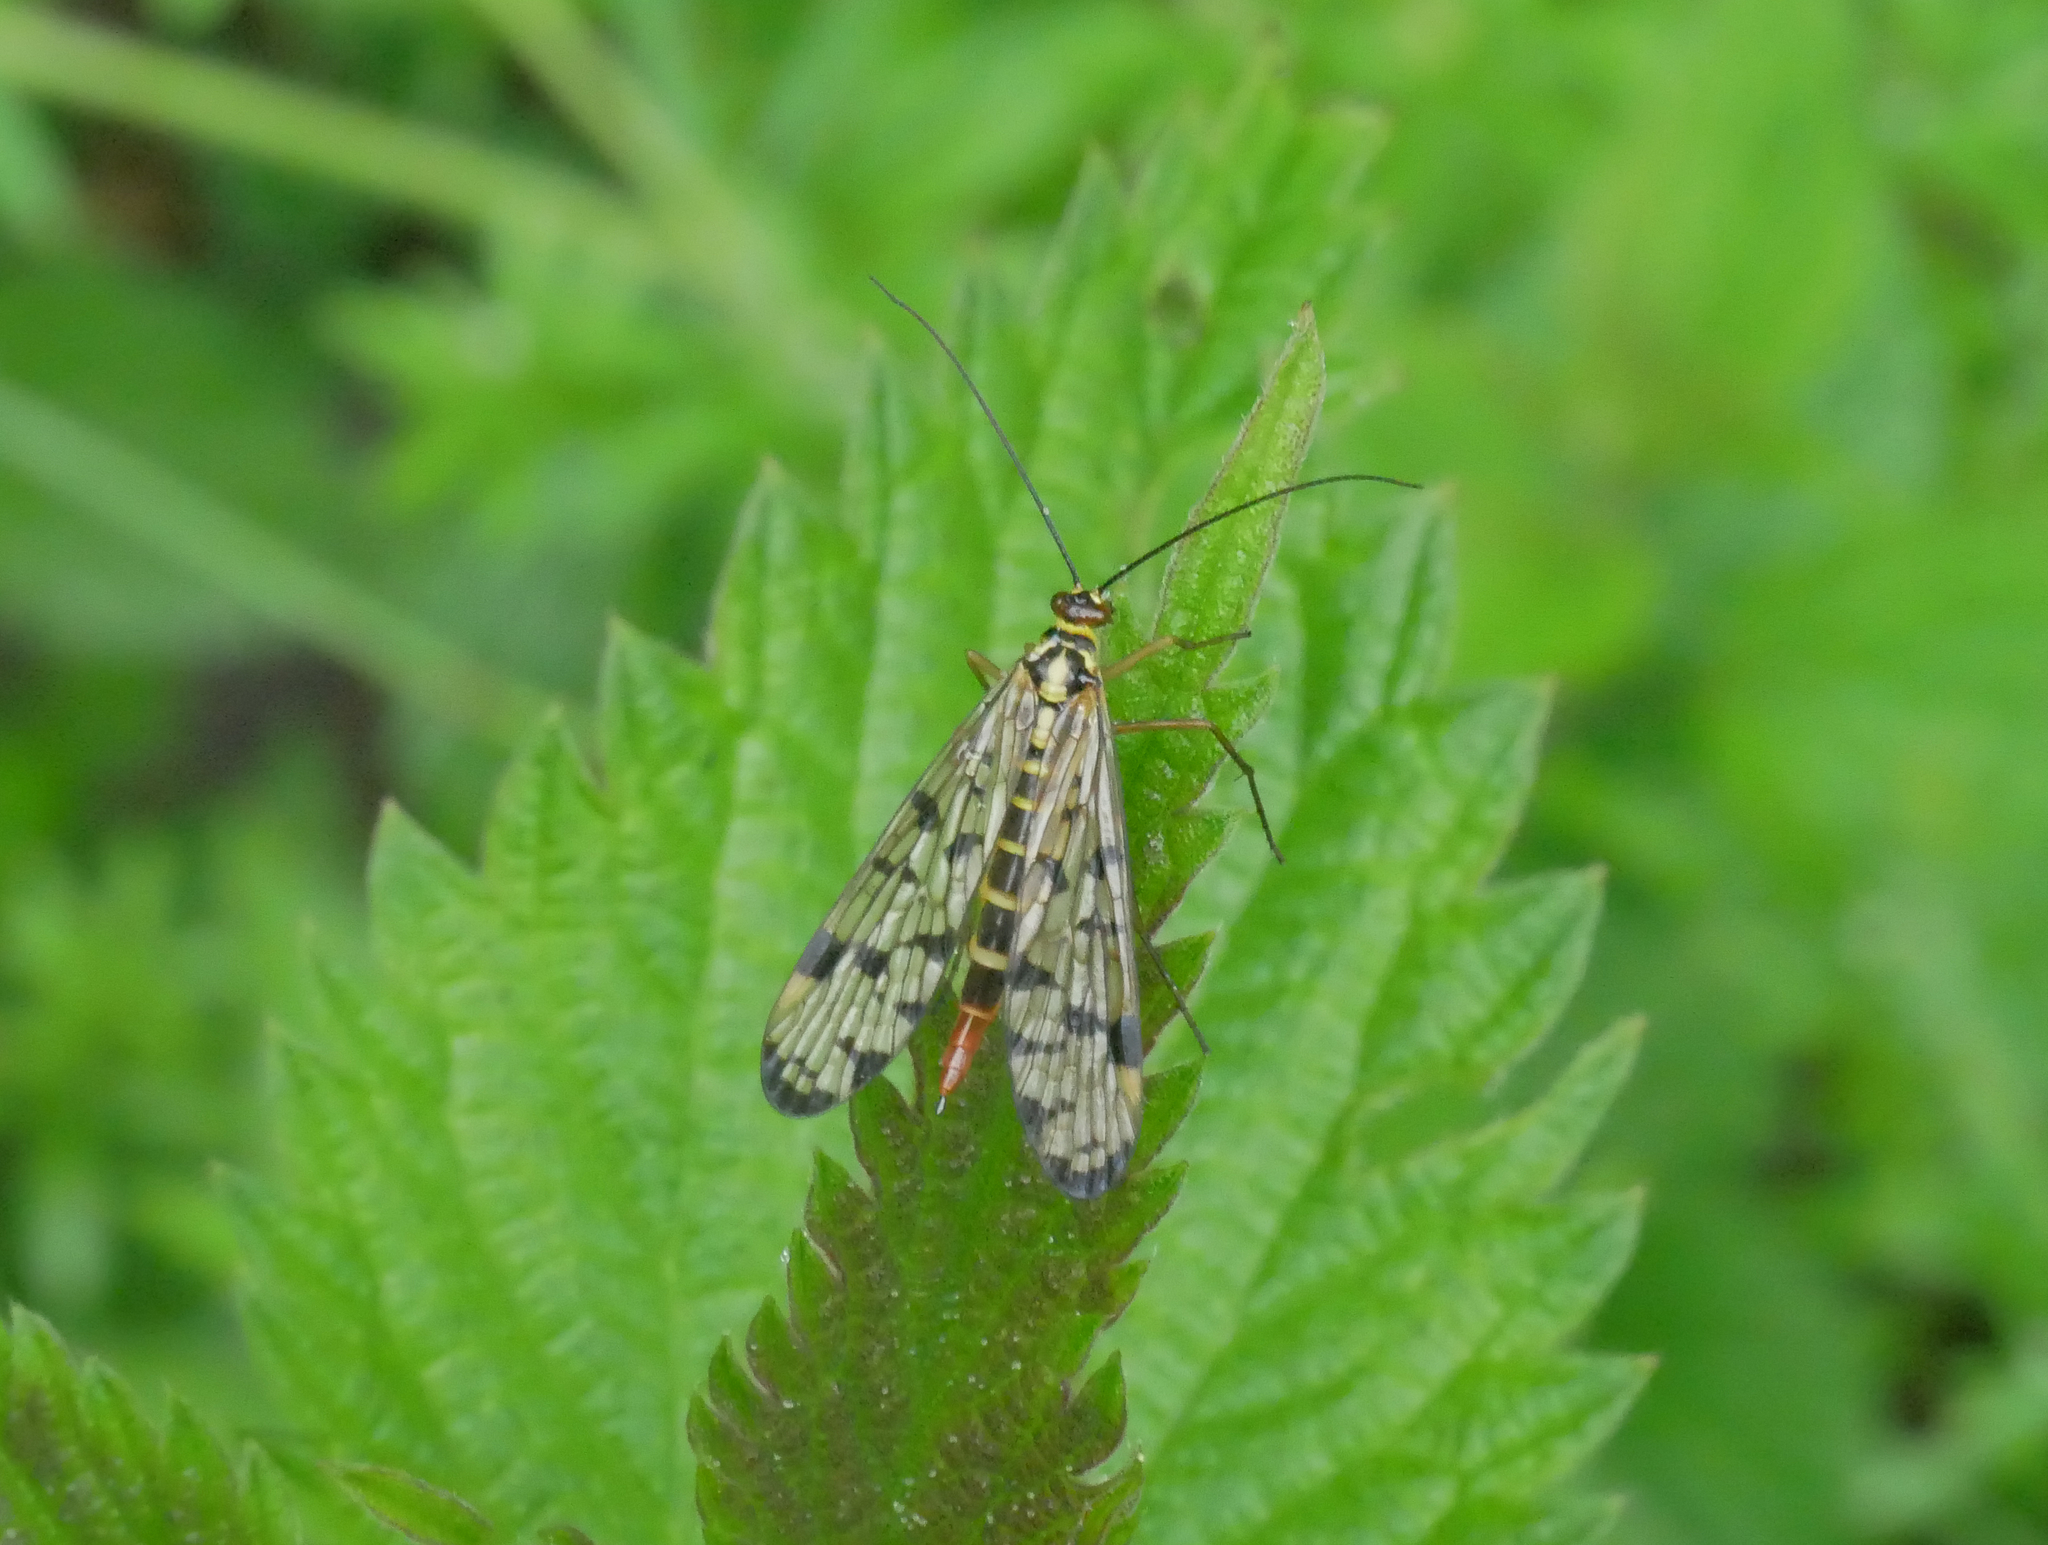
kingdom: Animalia
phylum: Arthropoda
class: Insecta
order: Mecoptera
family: Panorpidae
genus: Panorpa
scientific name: Panorpa germanica
